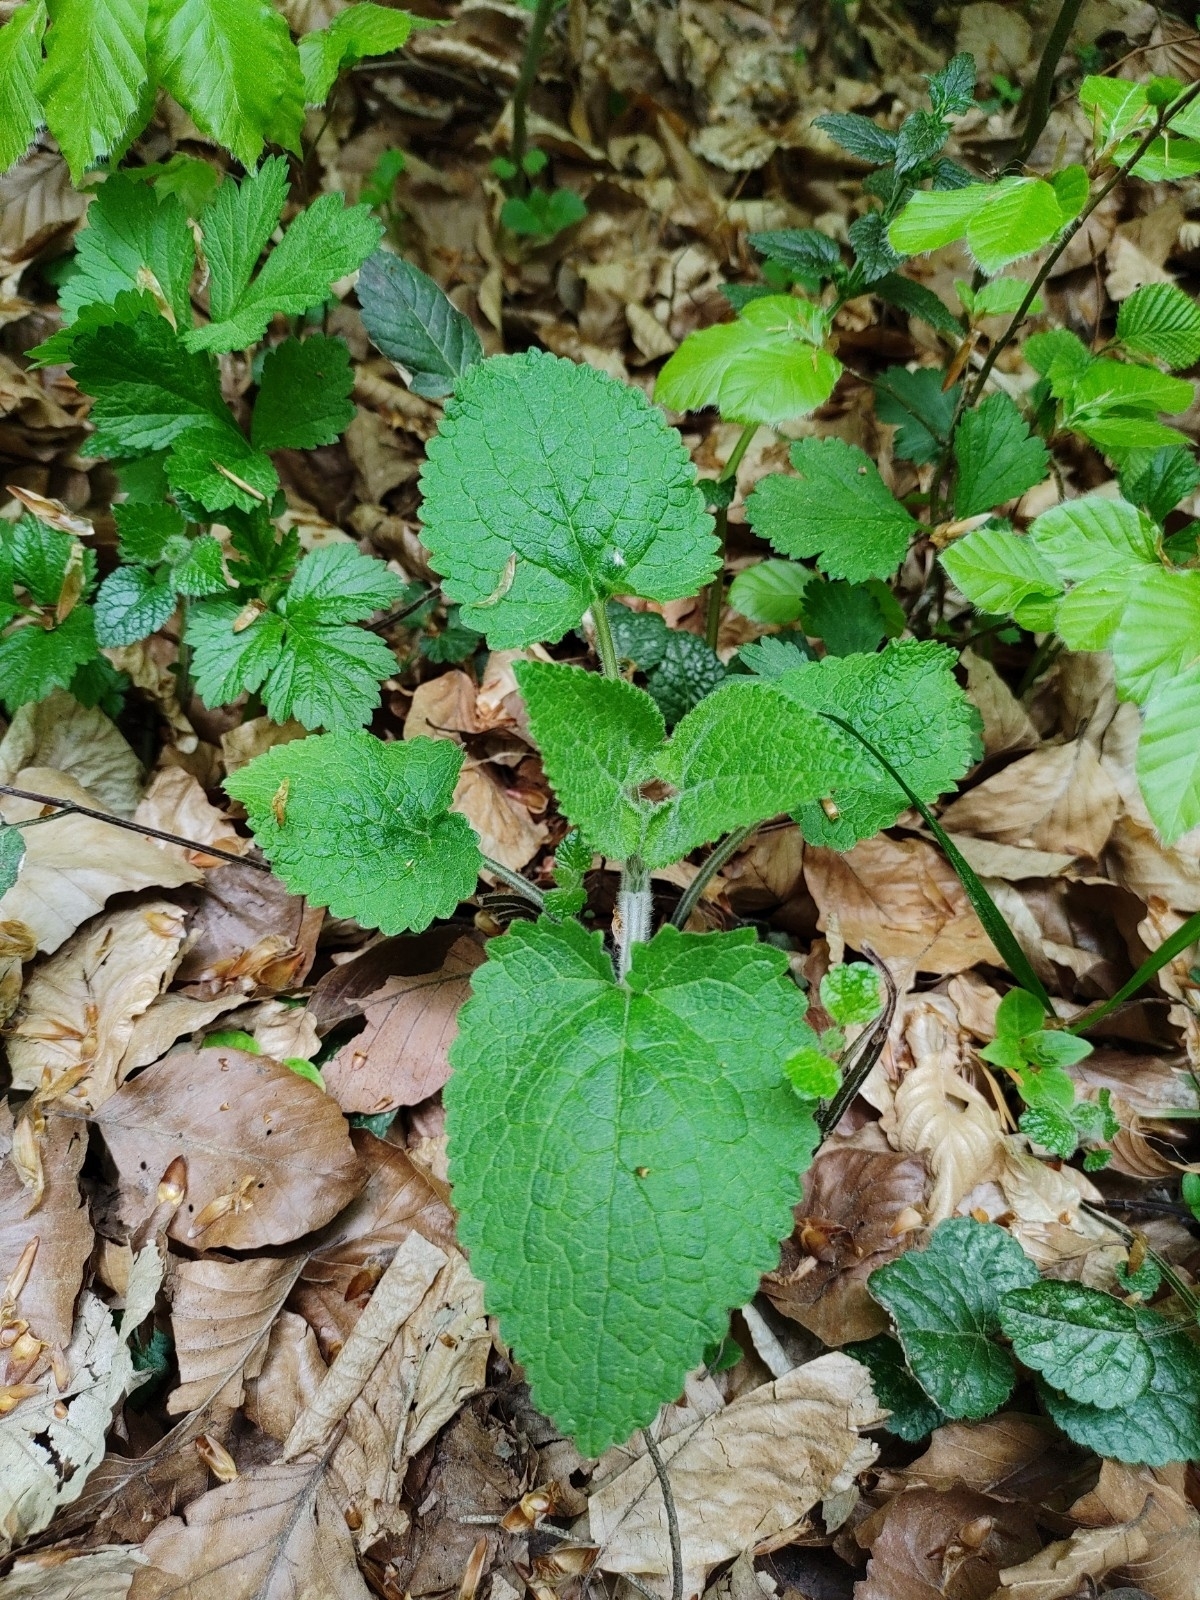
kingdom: Plantae
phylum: Tracheophyta
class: Magnoliopsida
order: Lamiales
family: Lamiaceae
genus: Stachys
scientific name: Stachys sylvatica
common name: Hedge woundwort
